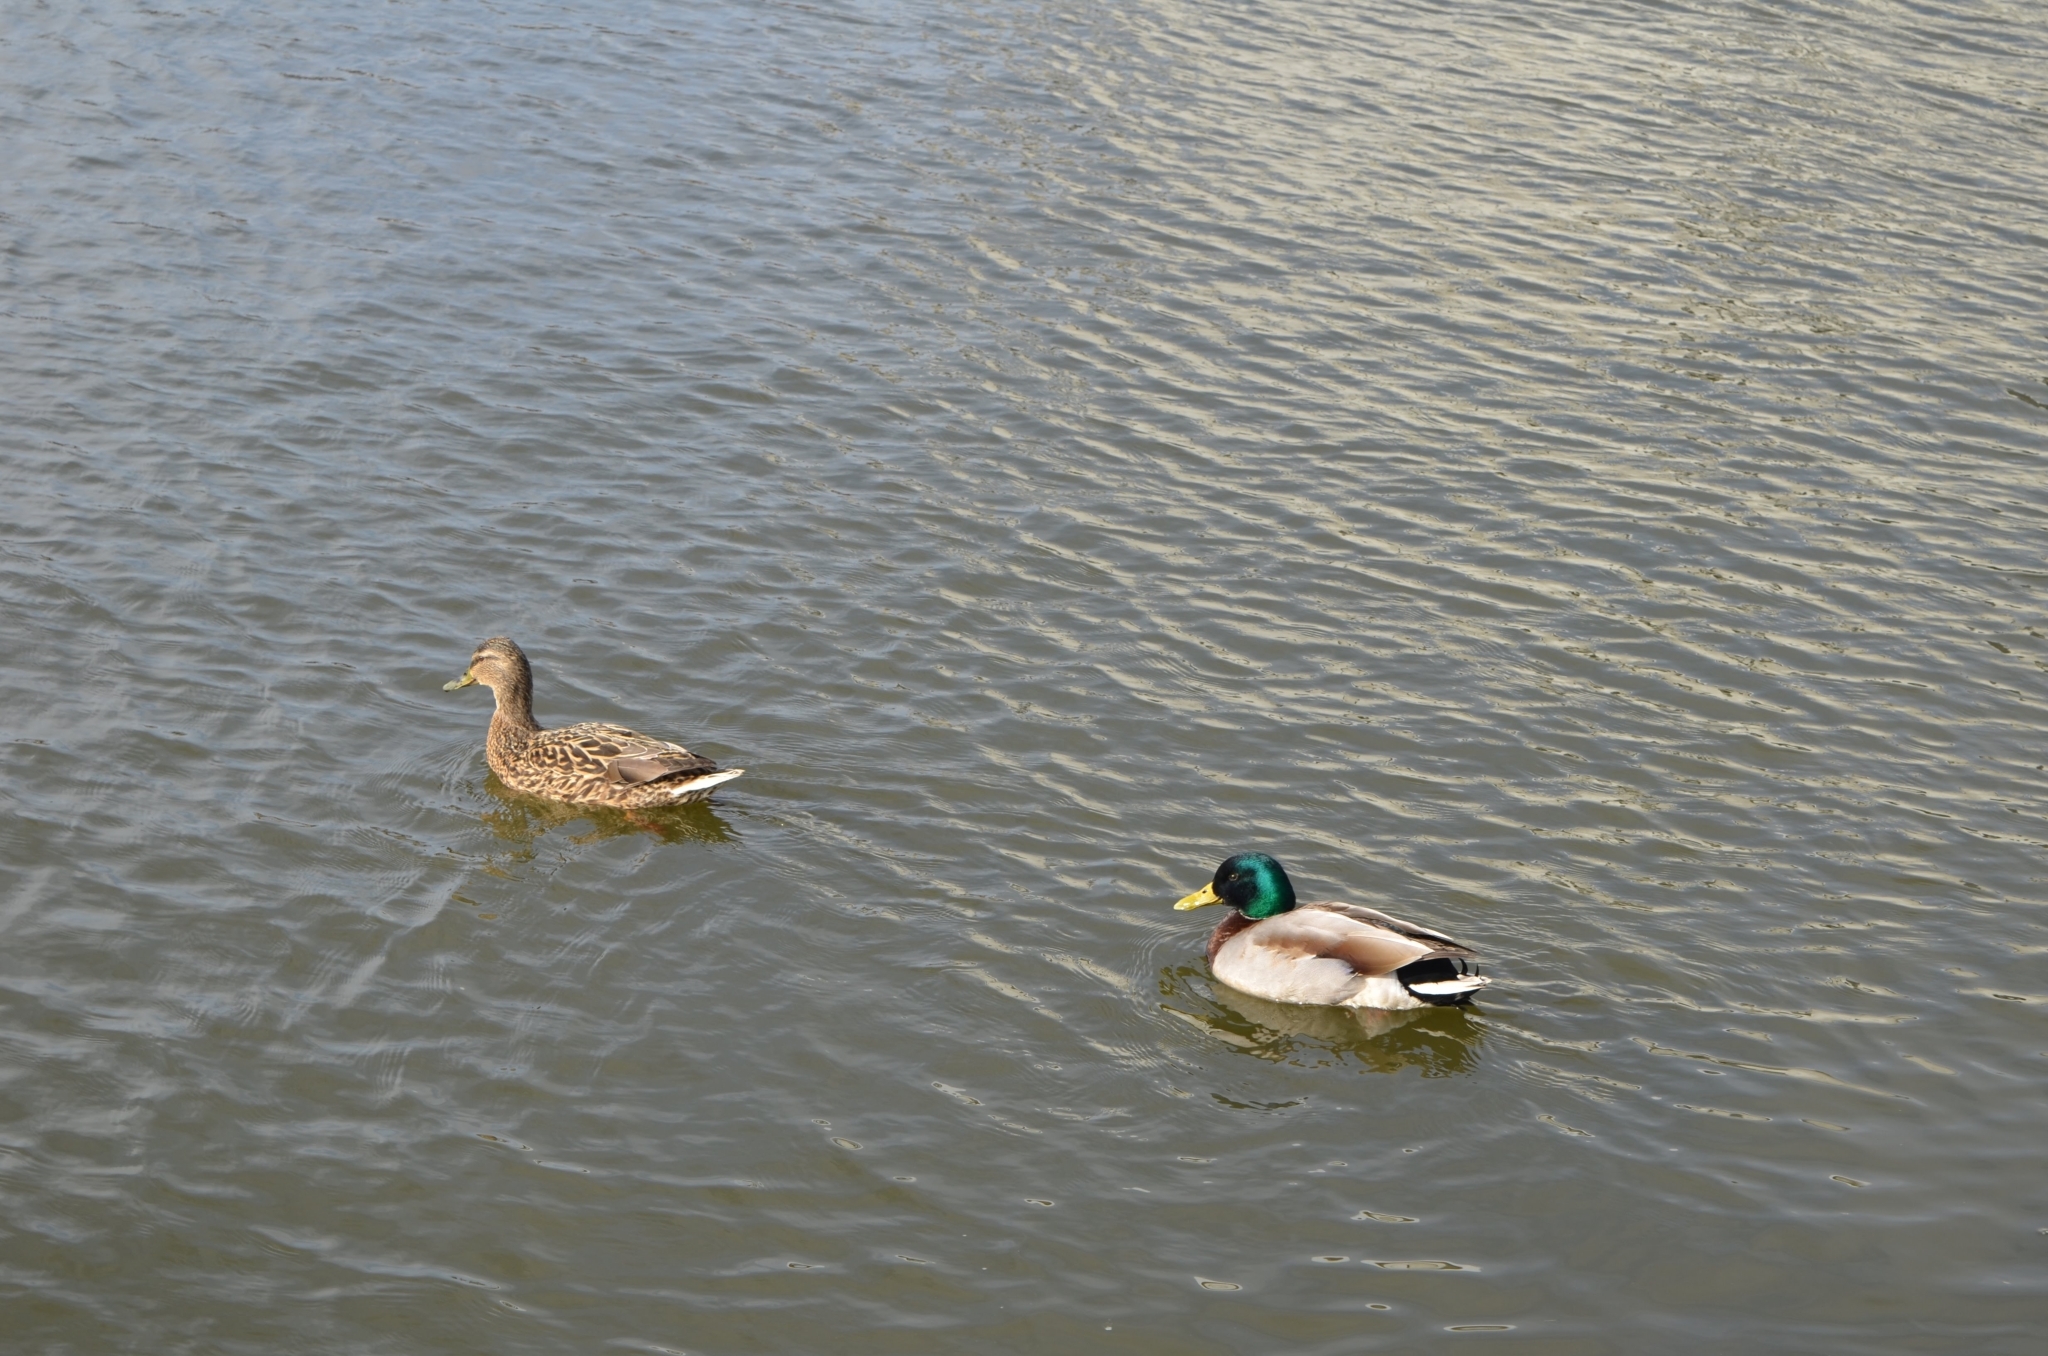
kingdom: Animalia
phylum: Chordata
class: Aves
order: Anseriformes
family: Anatidae
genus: Anas
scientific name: Anas platyrhynchos
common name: Mallard
